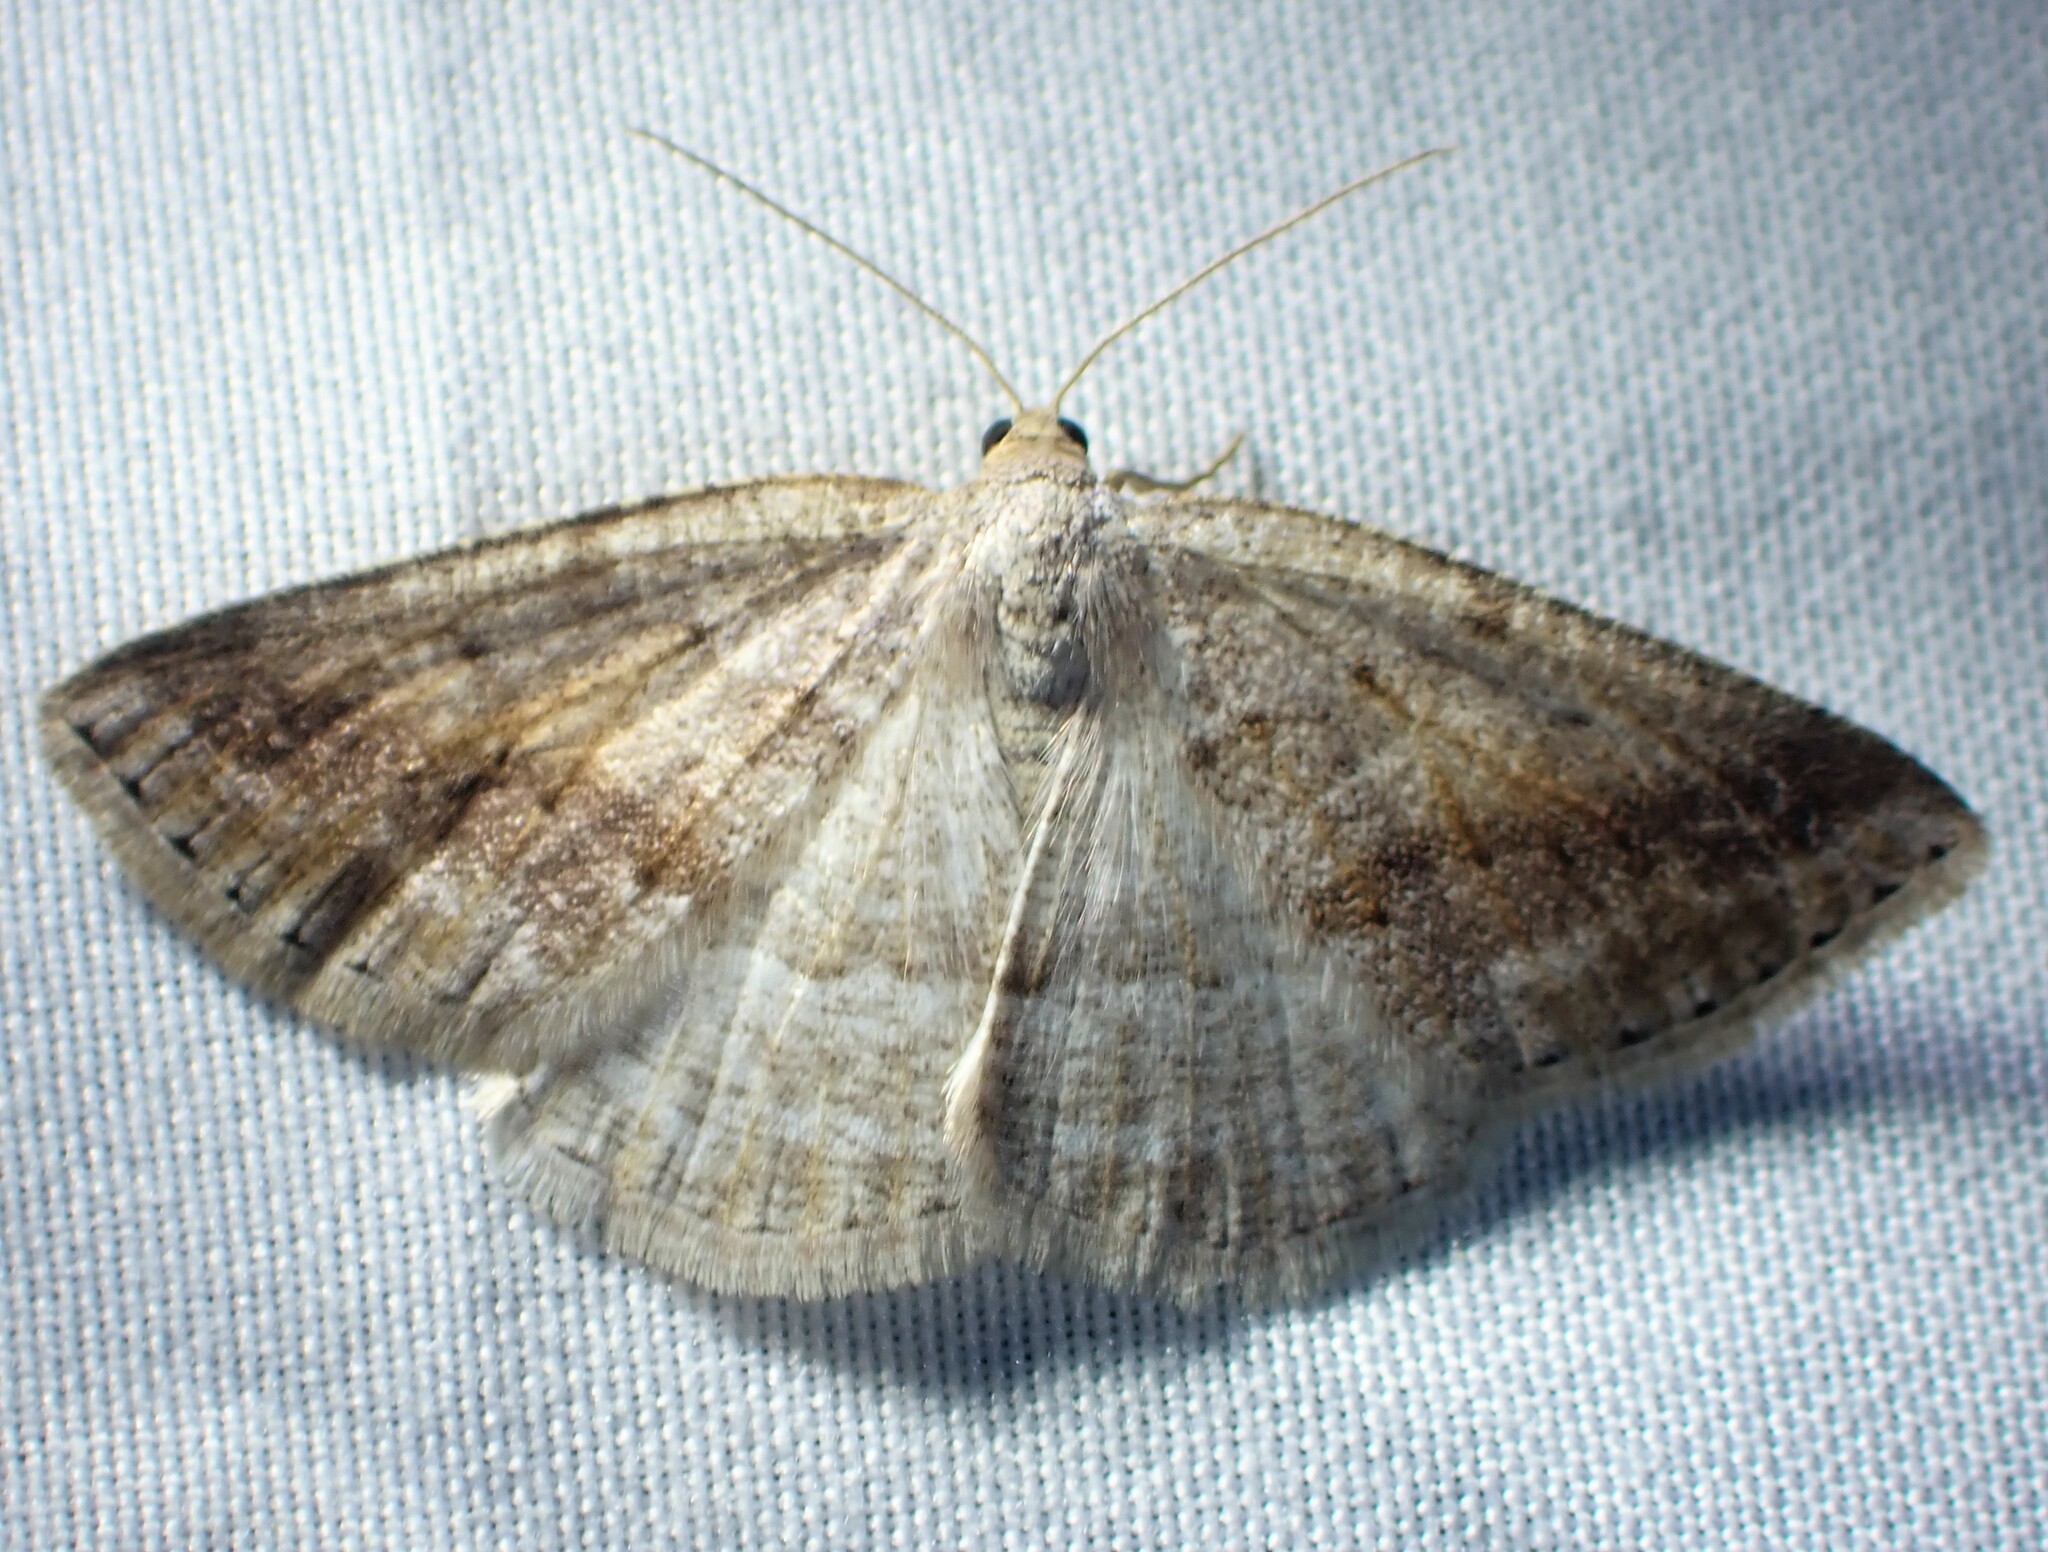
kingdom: Animalia
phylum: Arthropoda
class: Insecta
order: Lepidoptera
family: Geometridae
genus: Tacparia
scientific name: Tacparia detersata
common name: Pale alder moth
